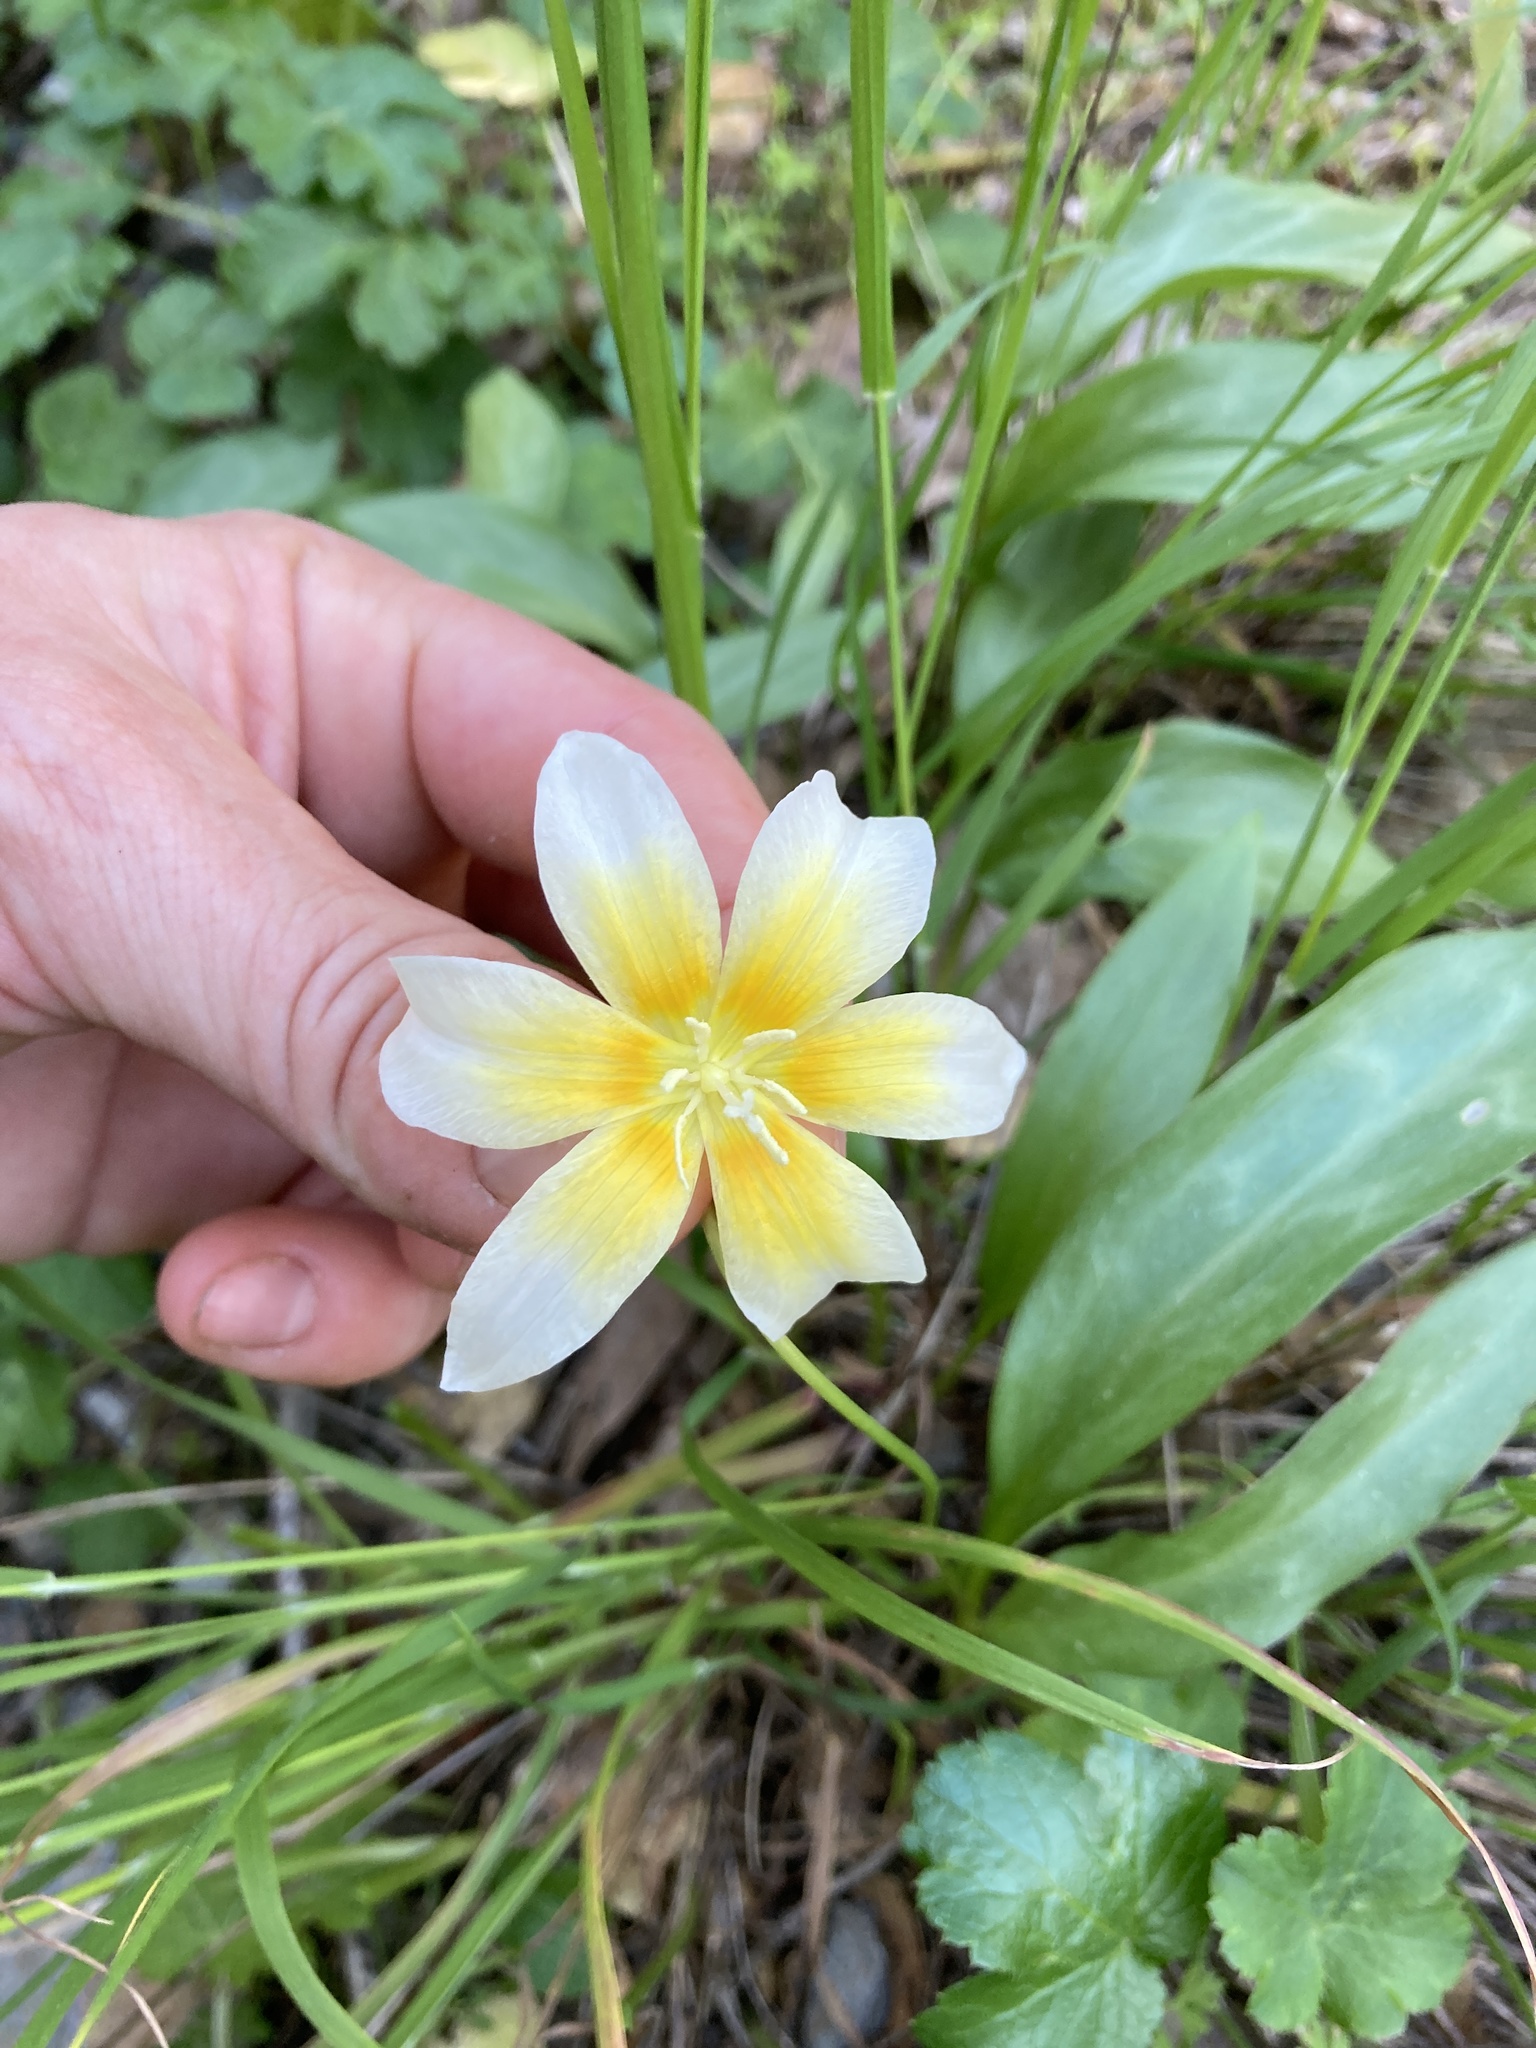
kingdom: Plantae
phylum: Tracheophyta
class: Liliopsida
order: Liliales
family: Liliaceae
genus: Erythronium
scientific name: Erythronium multiscapideum
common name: Sierra foothills fawn-lily
